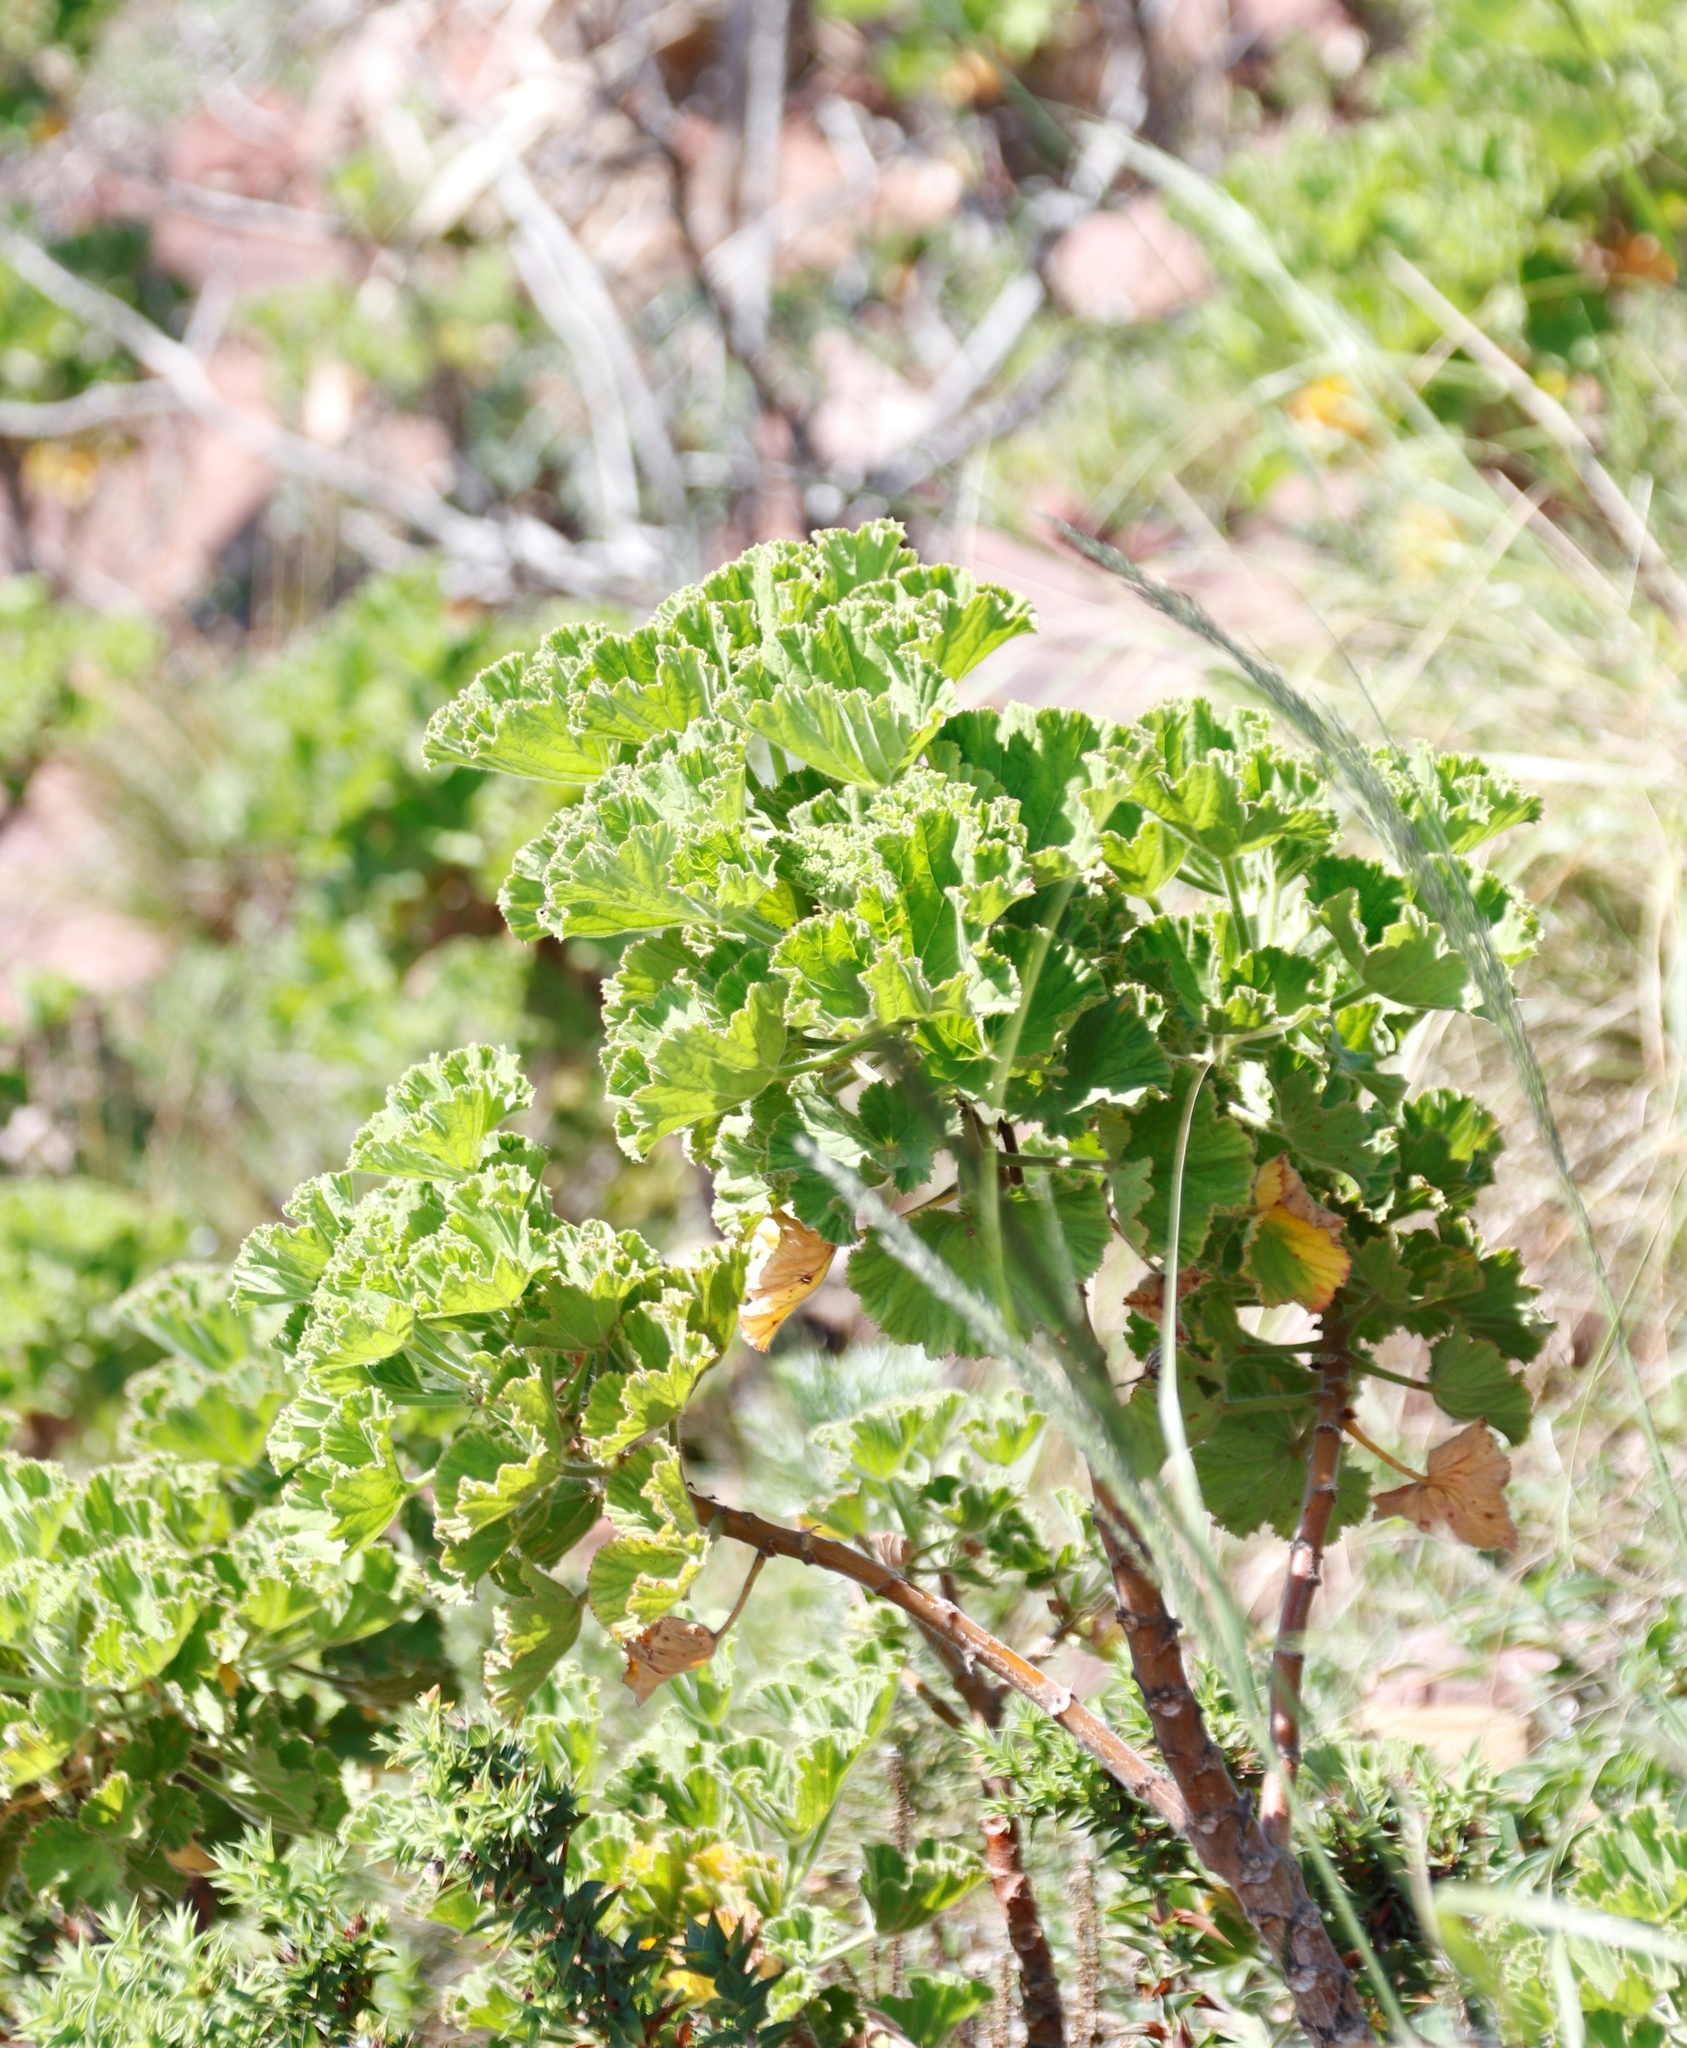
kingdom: Plantae
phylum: Tracheophyta
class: Magnoliopsida
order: Geraniales
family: Geraniaceae
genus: Pelargonium
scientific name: Pelargonium cucullatum
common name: Tree pelargonium
